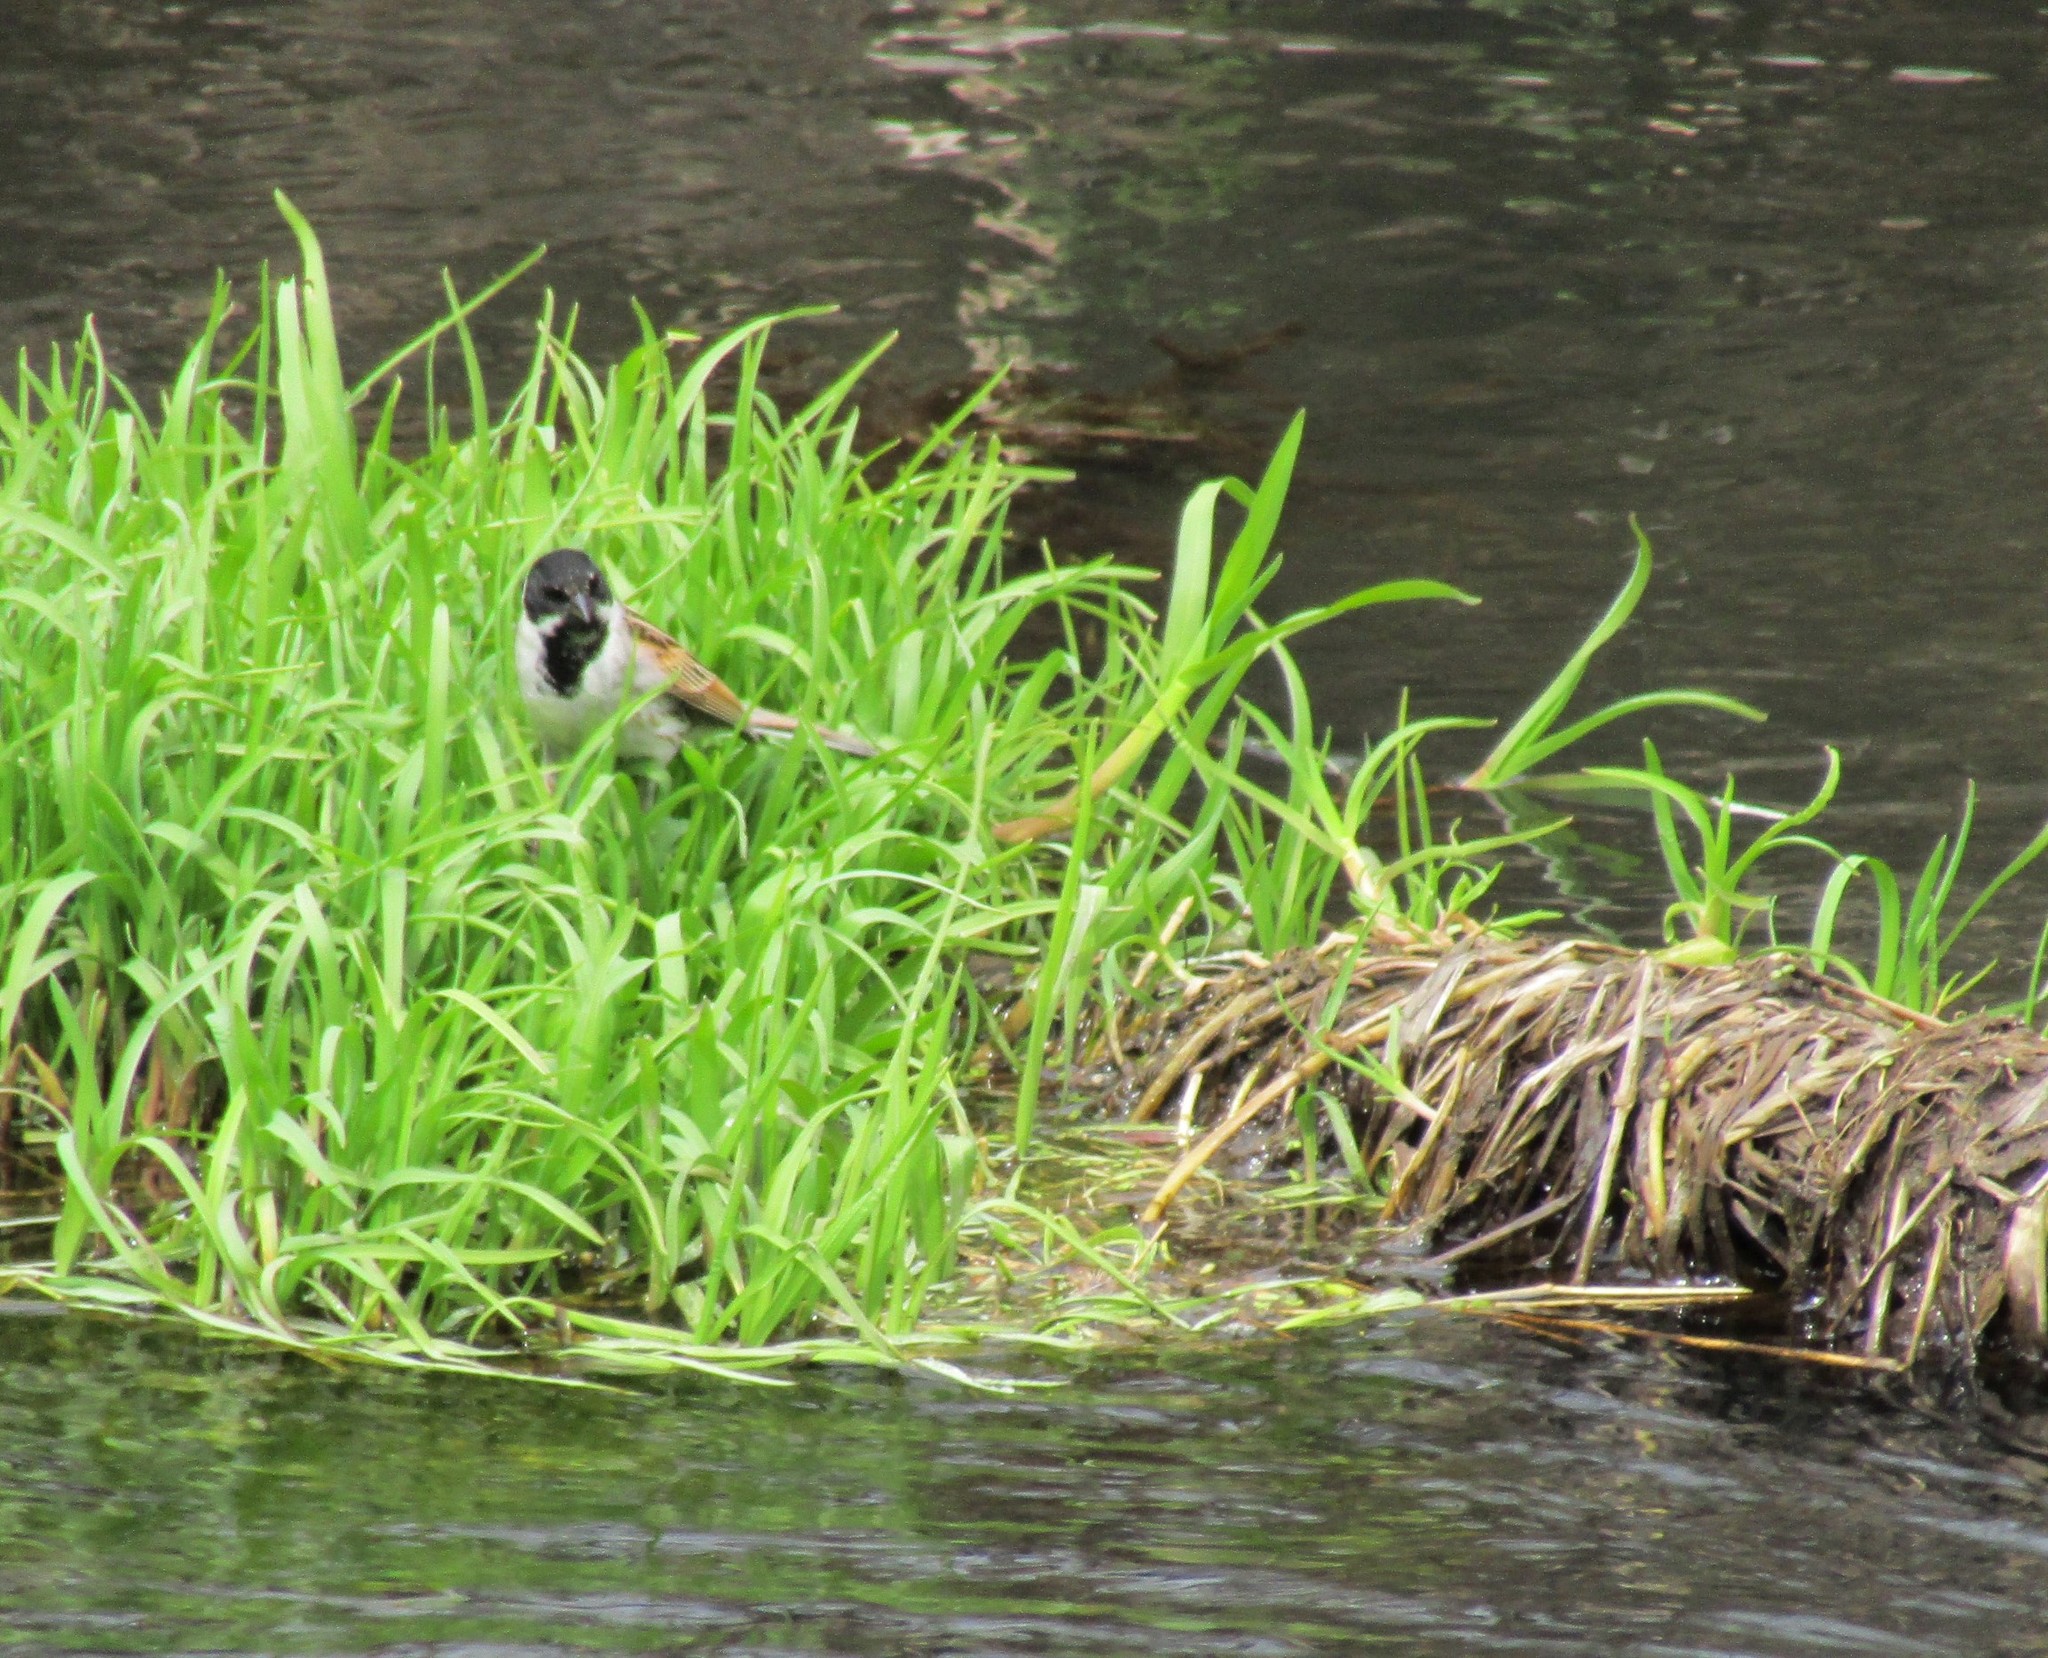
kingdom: Animalia
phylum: Chordata
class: Aves
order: Passeriformes
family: Emberizidae
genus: Emberiza
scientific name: Emberiza schoeniclus
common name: Reed bunting
